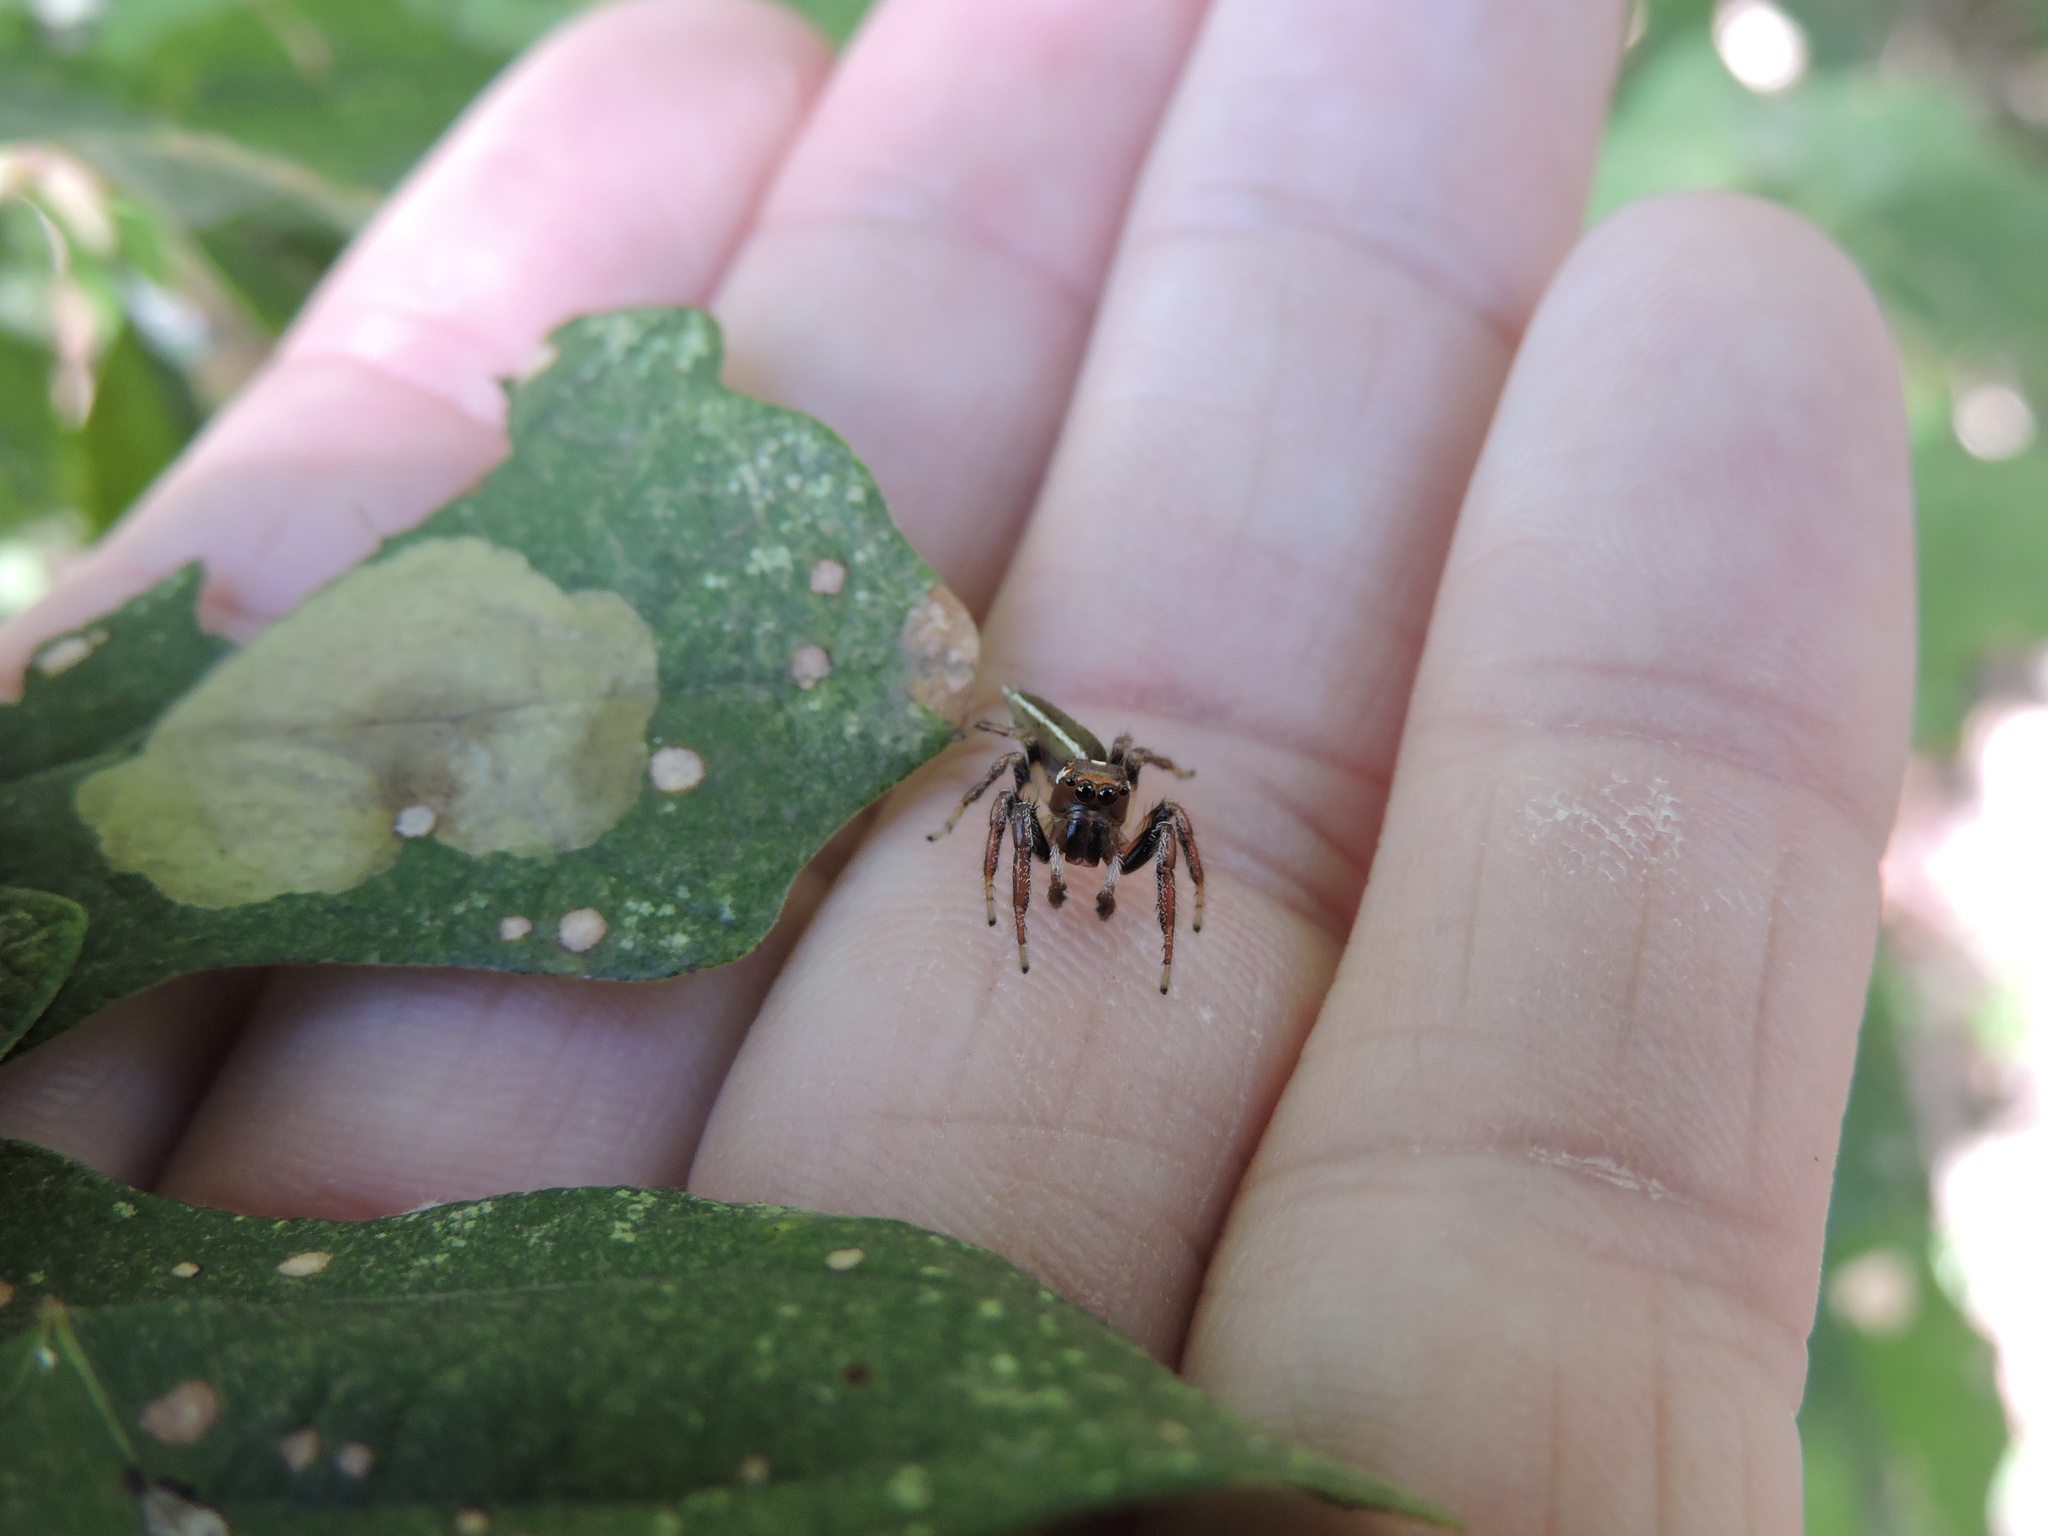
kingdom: Animalia
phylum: Arthropoda
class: Arachnida
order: Araneae
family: Salticidae
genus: Colonus
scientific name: Colonus sylvanus
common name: Jumping spiders
